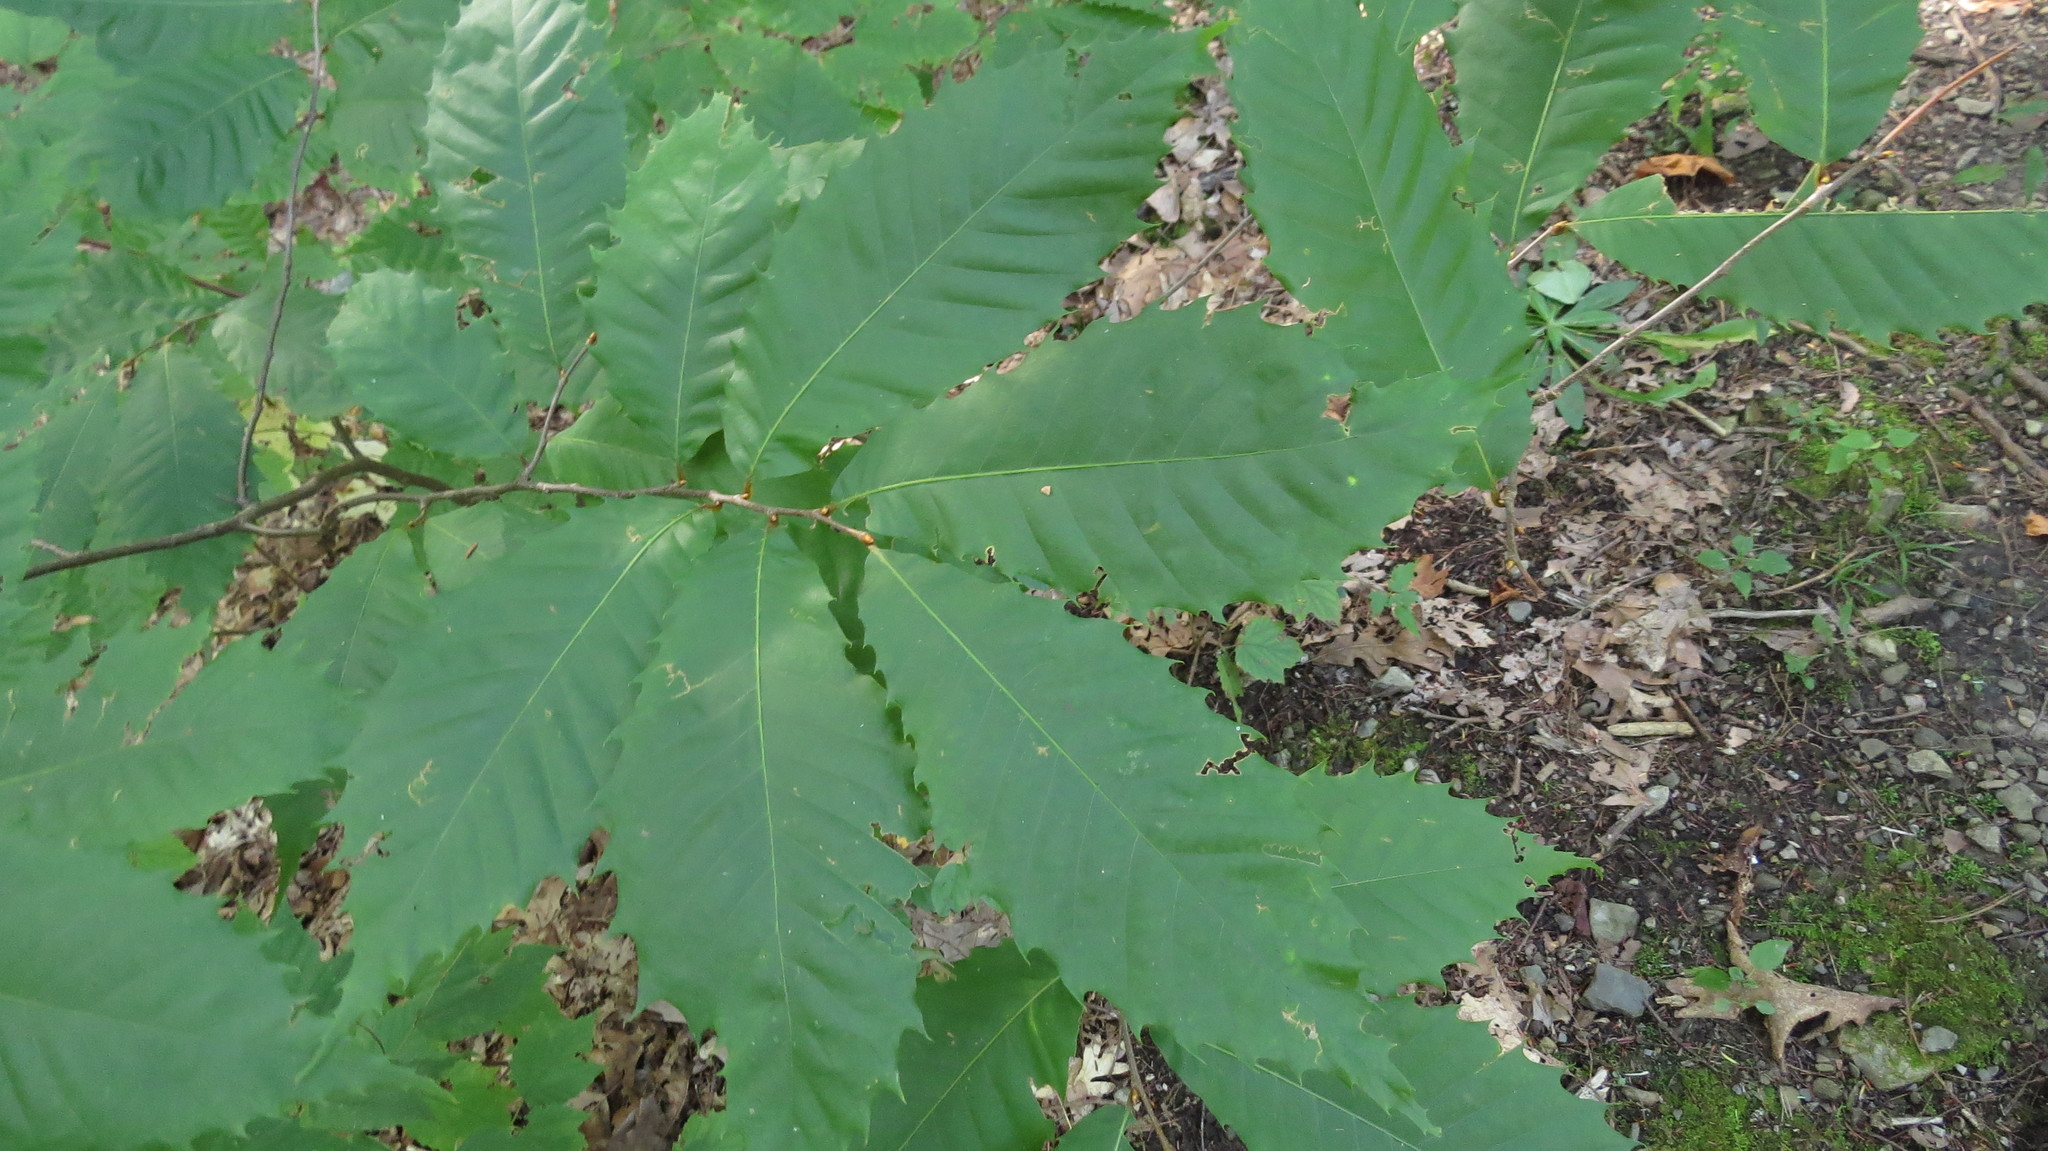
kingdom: Plantae
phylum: Tracheophyta
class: Magnoliopsida
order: Fagales
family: Fagaceae
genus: Castanea
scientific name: Castanea dentata
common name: American chestnut
